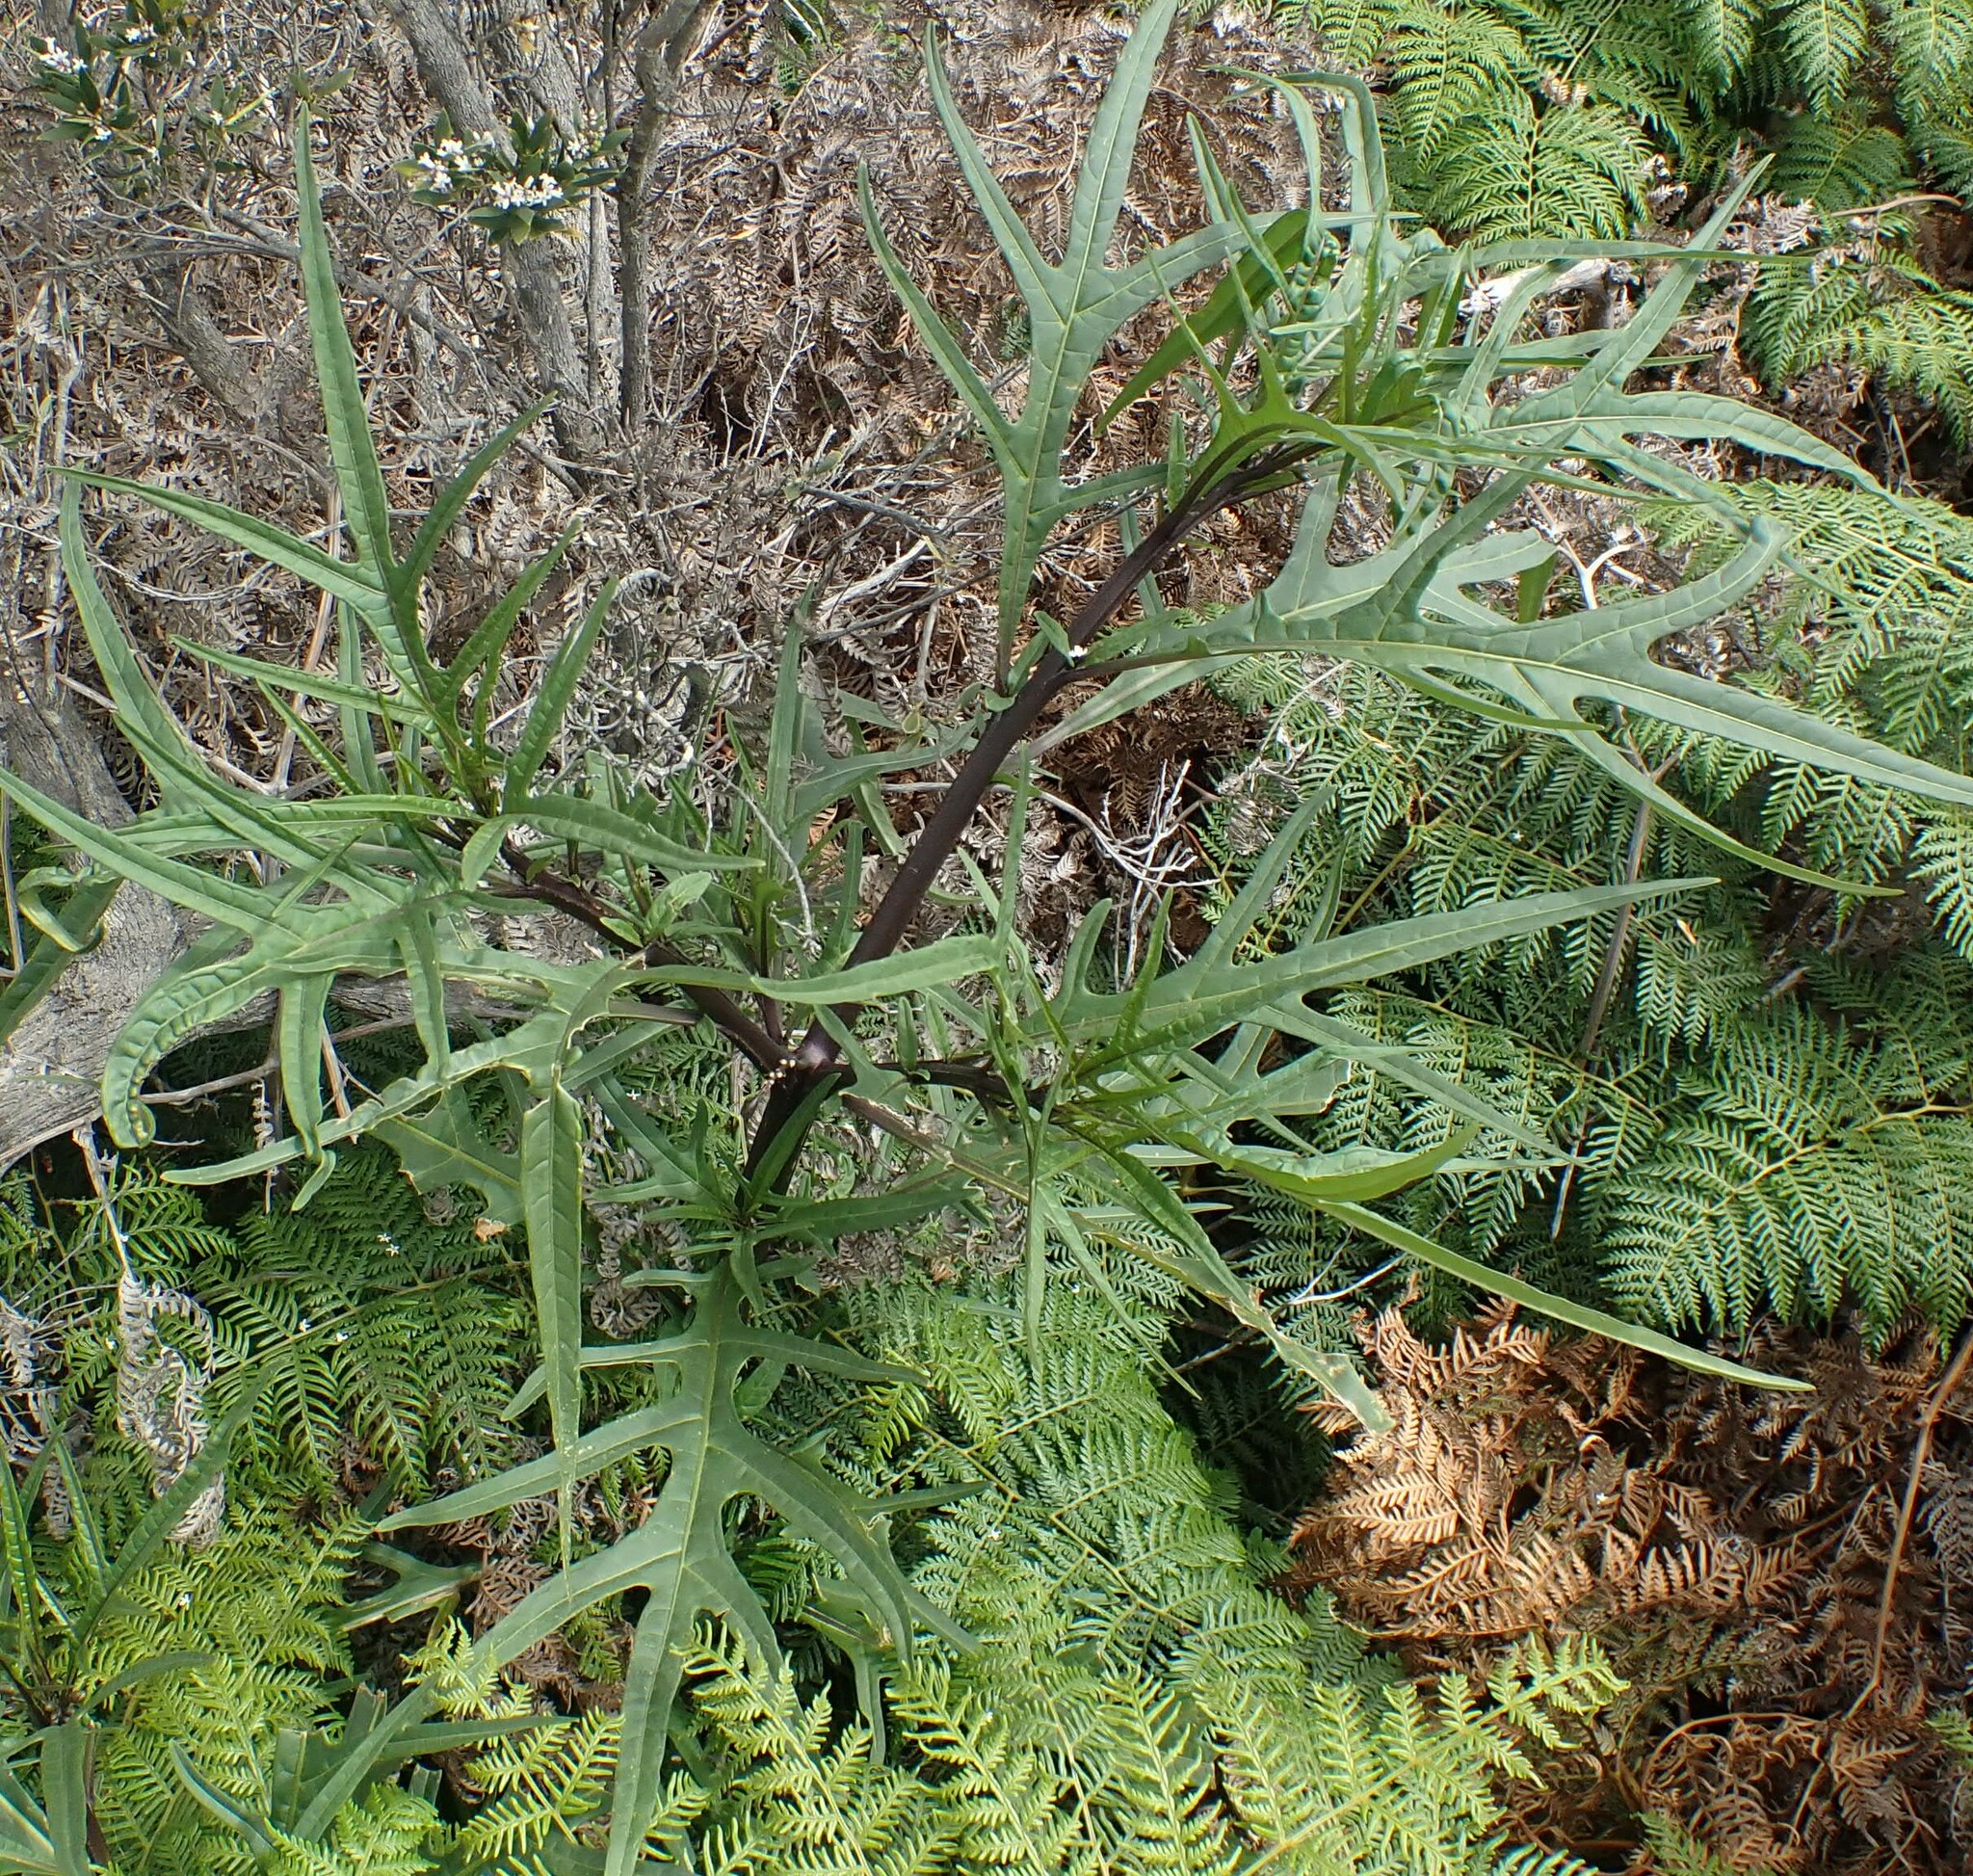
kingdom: Plantae
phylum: Tracheophyta
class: Magnoliopsida
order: Solanales
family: Solanaceae
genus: Solanum
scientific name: Solanum laciniatum
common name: Kangaroo-apple
